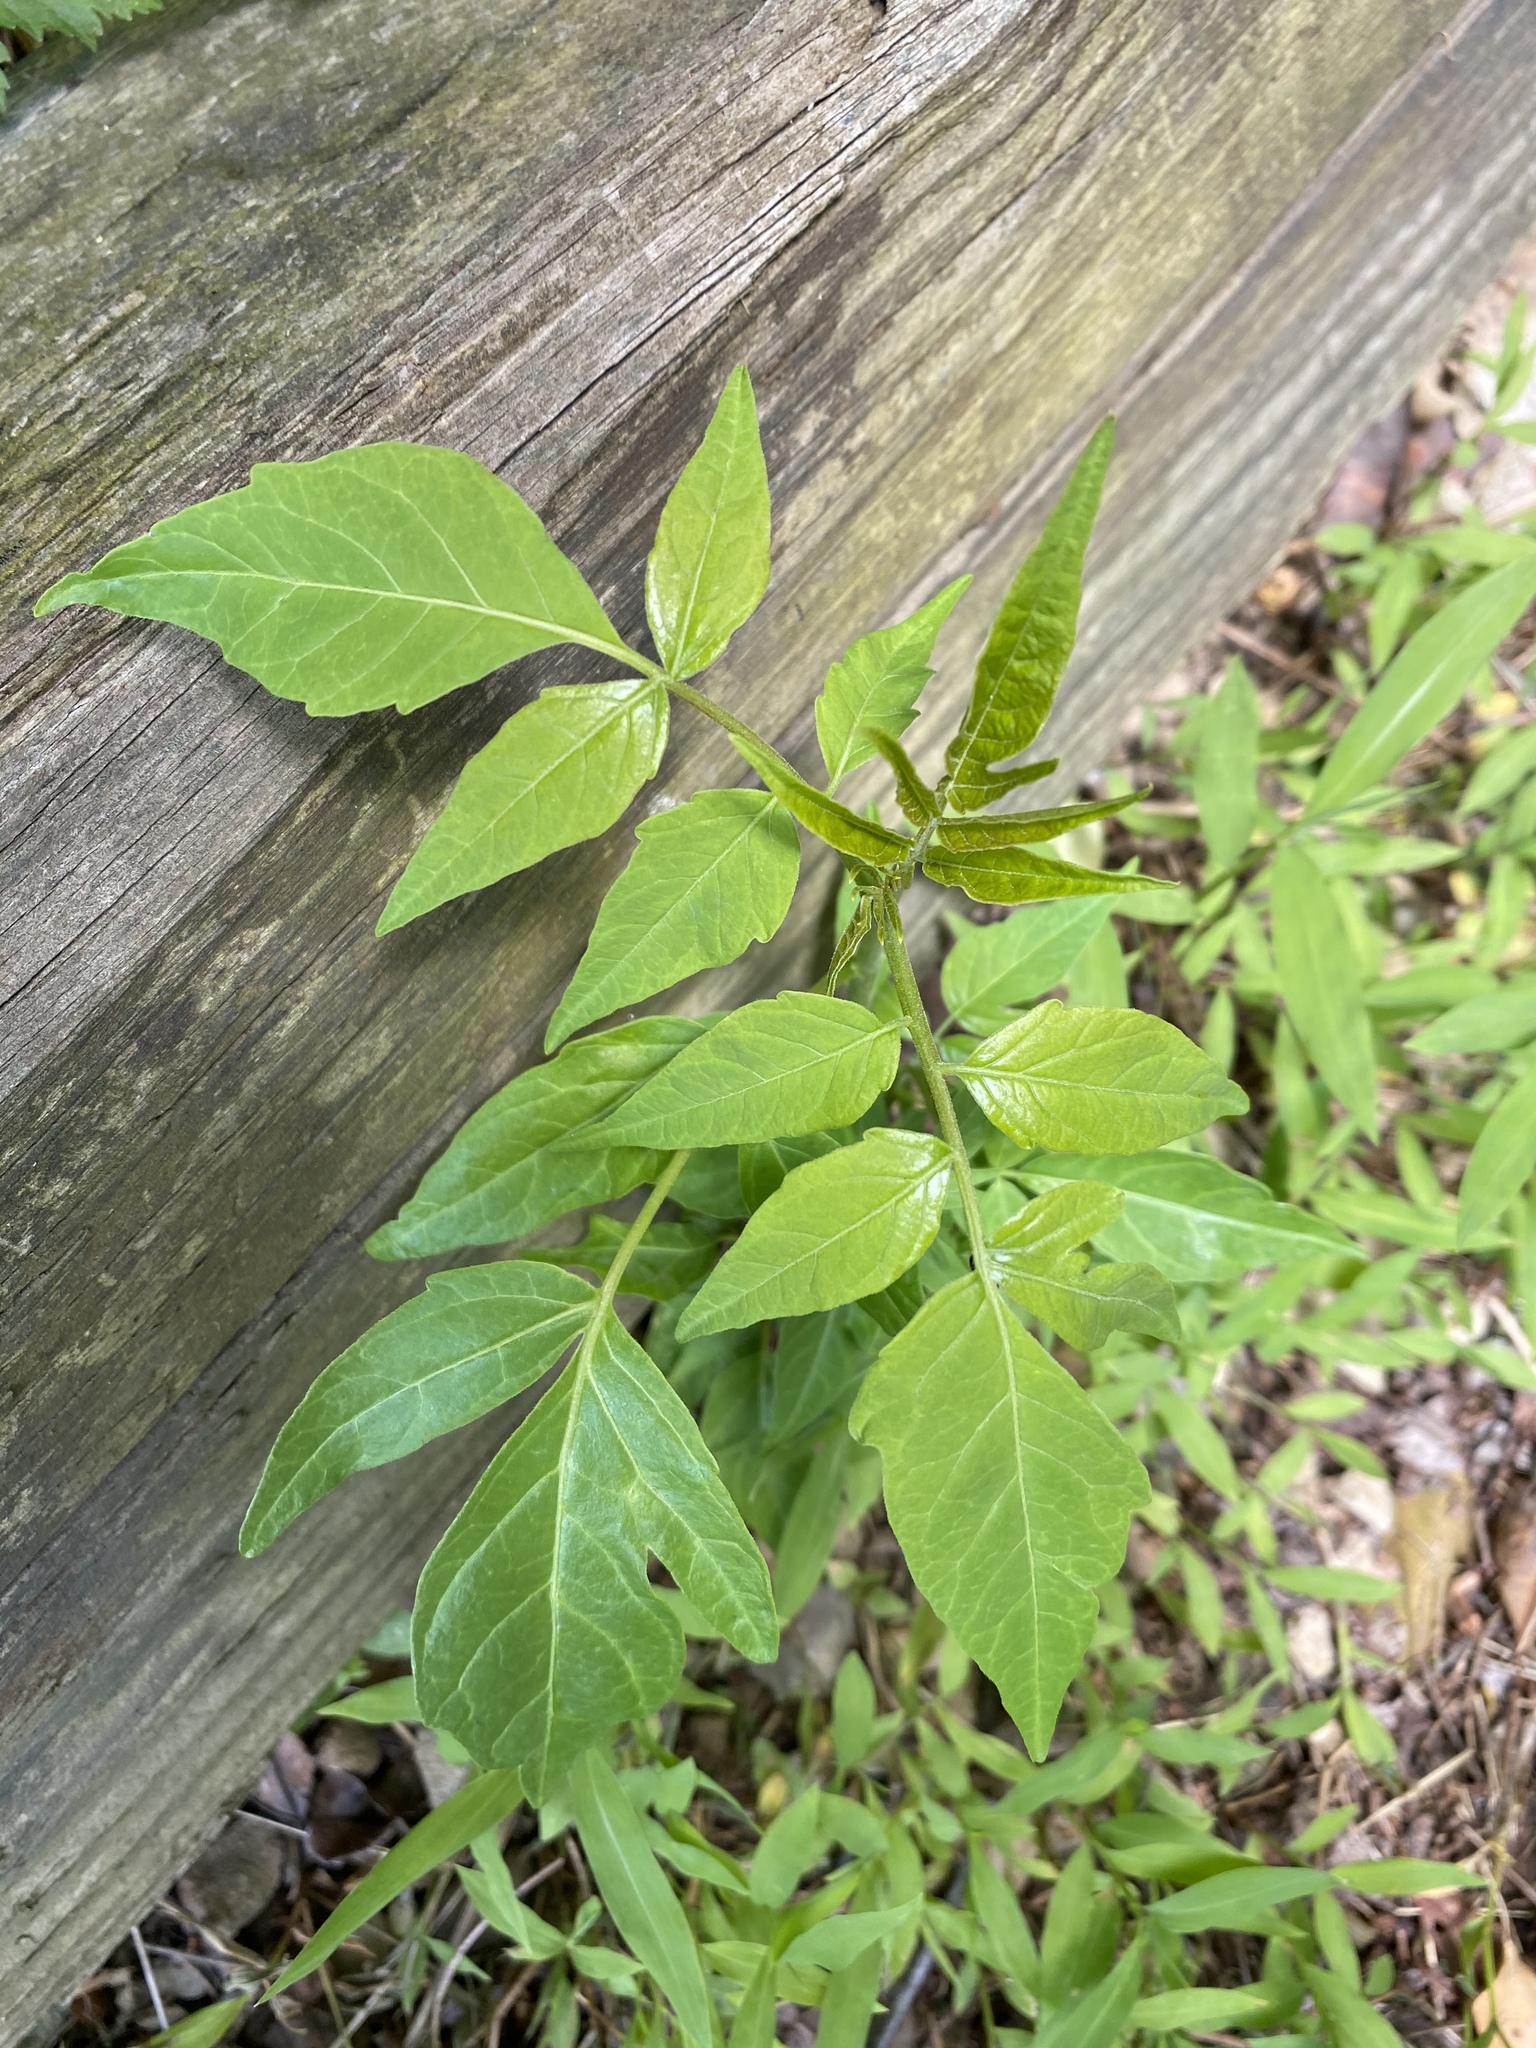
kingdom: Plantae
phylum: Tracheophyta
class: Magnoliopsida
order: Sapindales
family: Simaroubaceae
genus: Ailanthus
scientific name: Ailanthus altissima
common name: Tree-of-heaven
